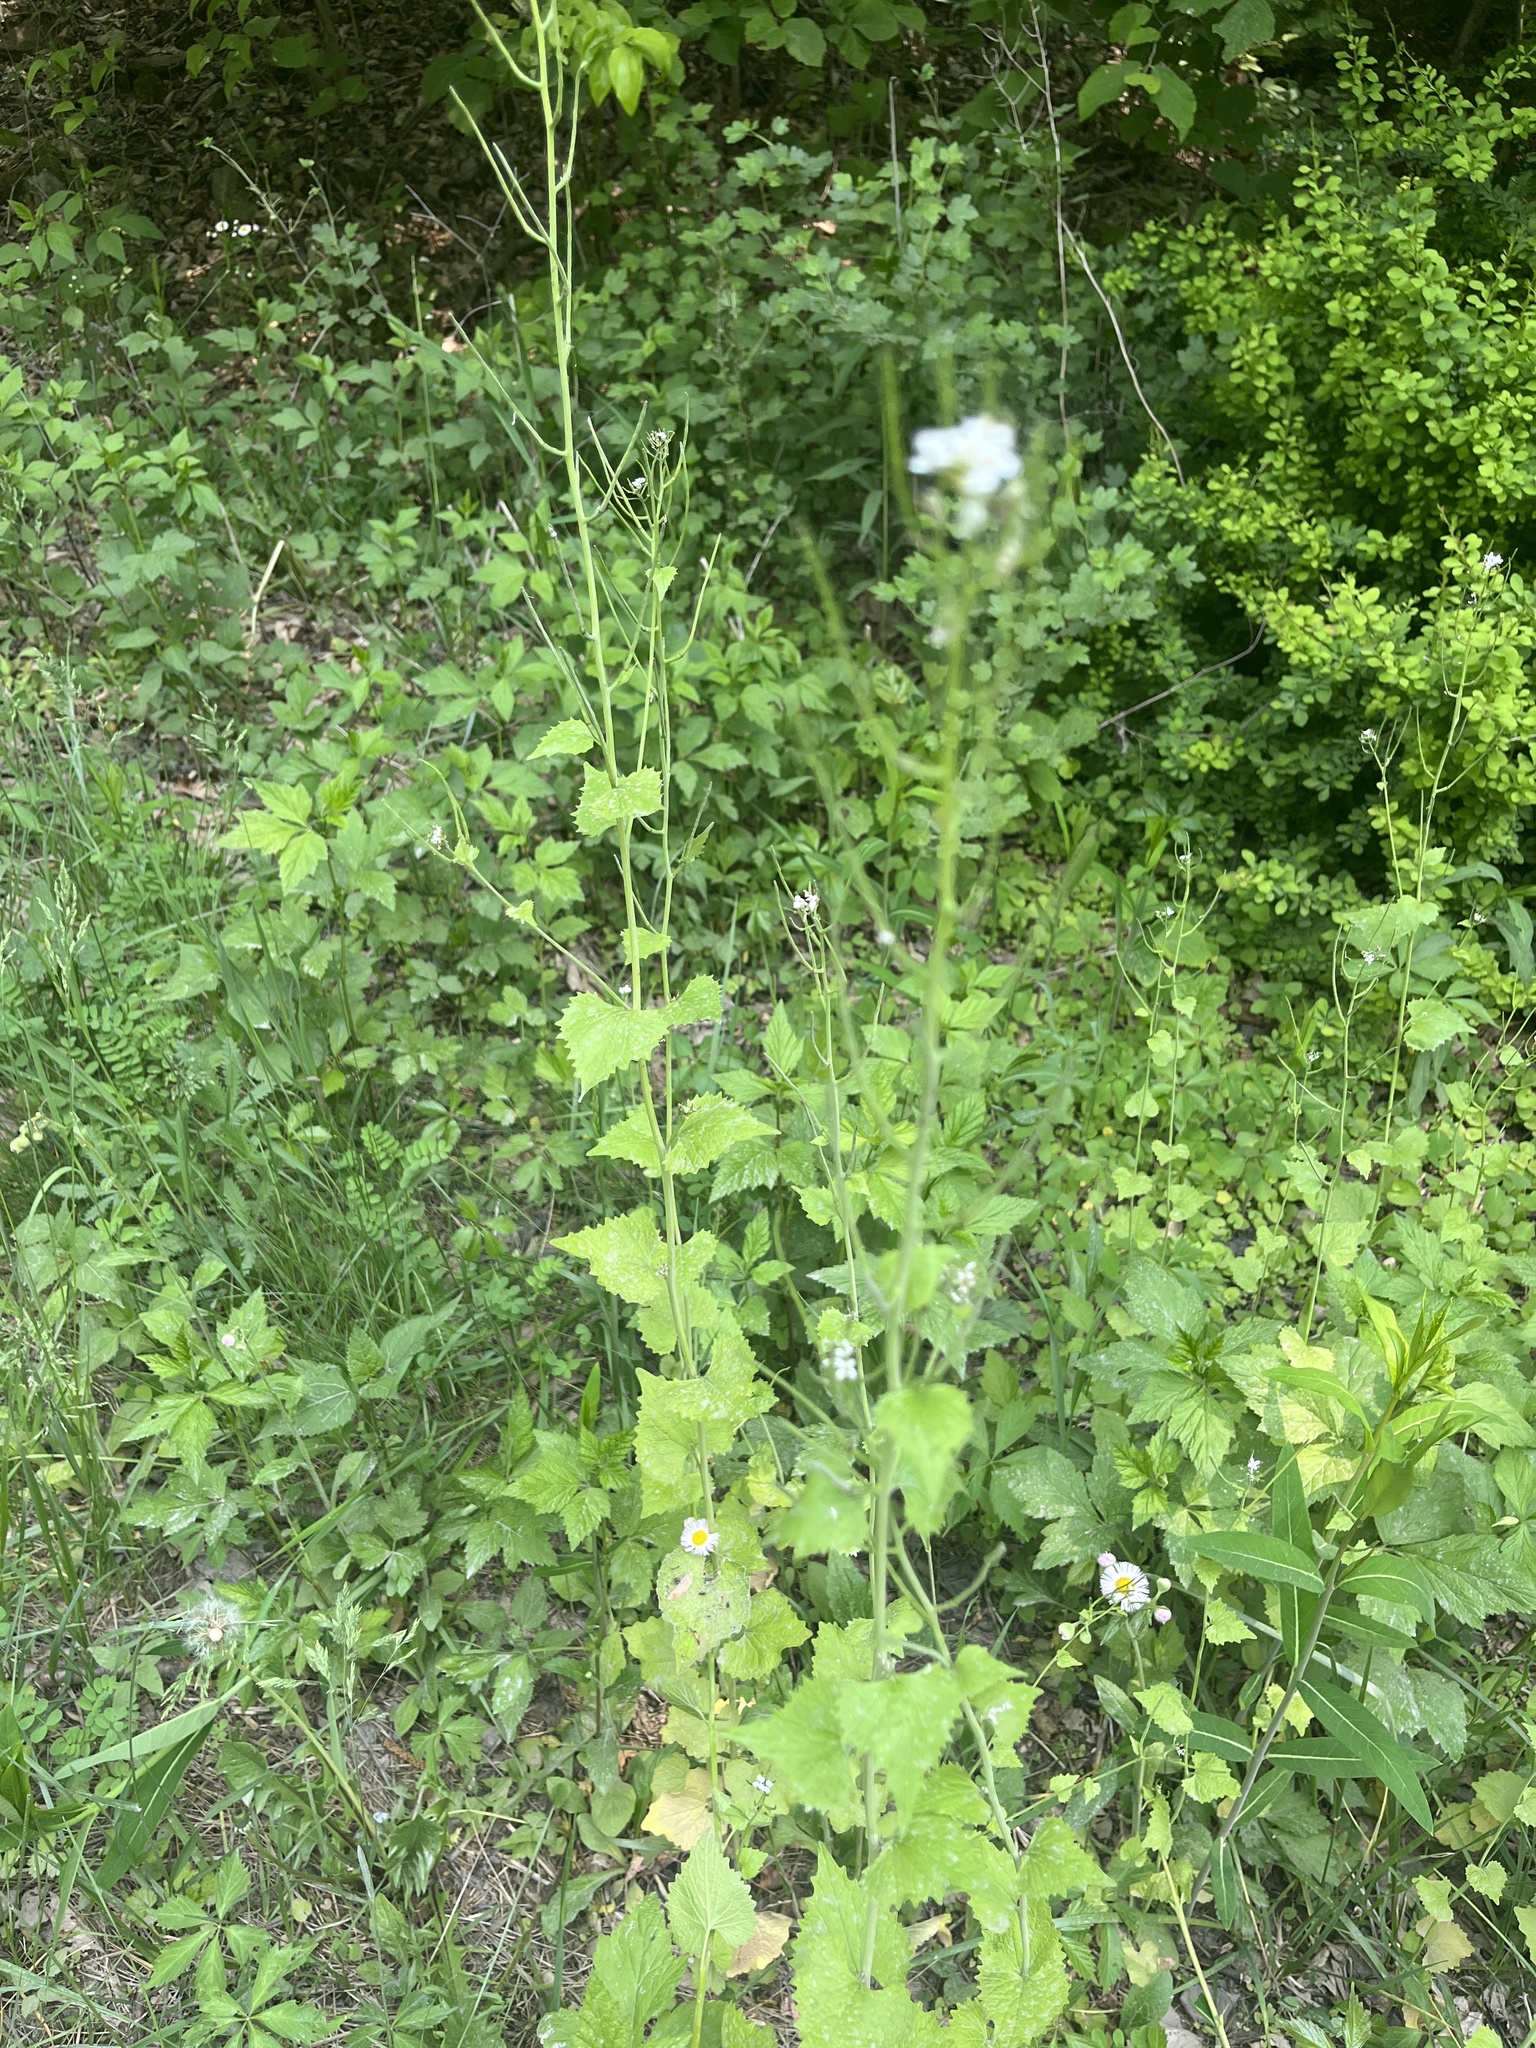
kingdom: Plantae
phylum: Tracheophyta
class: Magnoliopsida
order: Brassicales
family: Brassicaceae
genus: Alliaria
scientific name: Alliaria petiolata
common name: Garlic mustard
